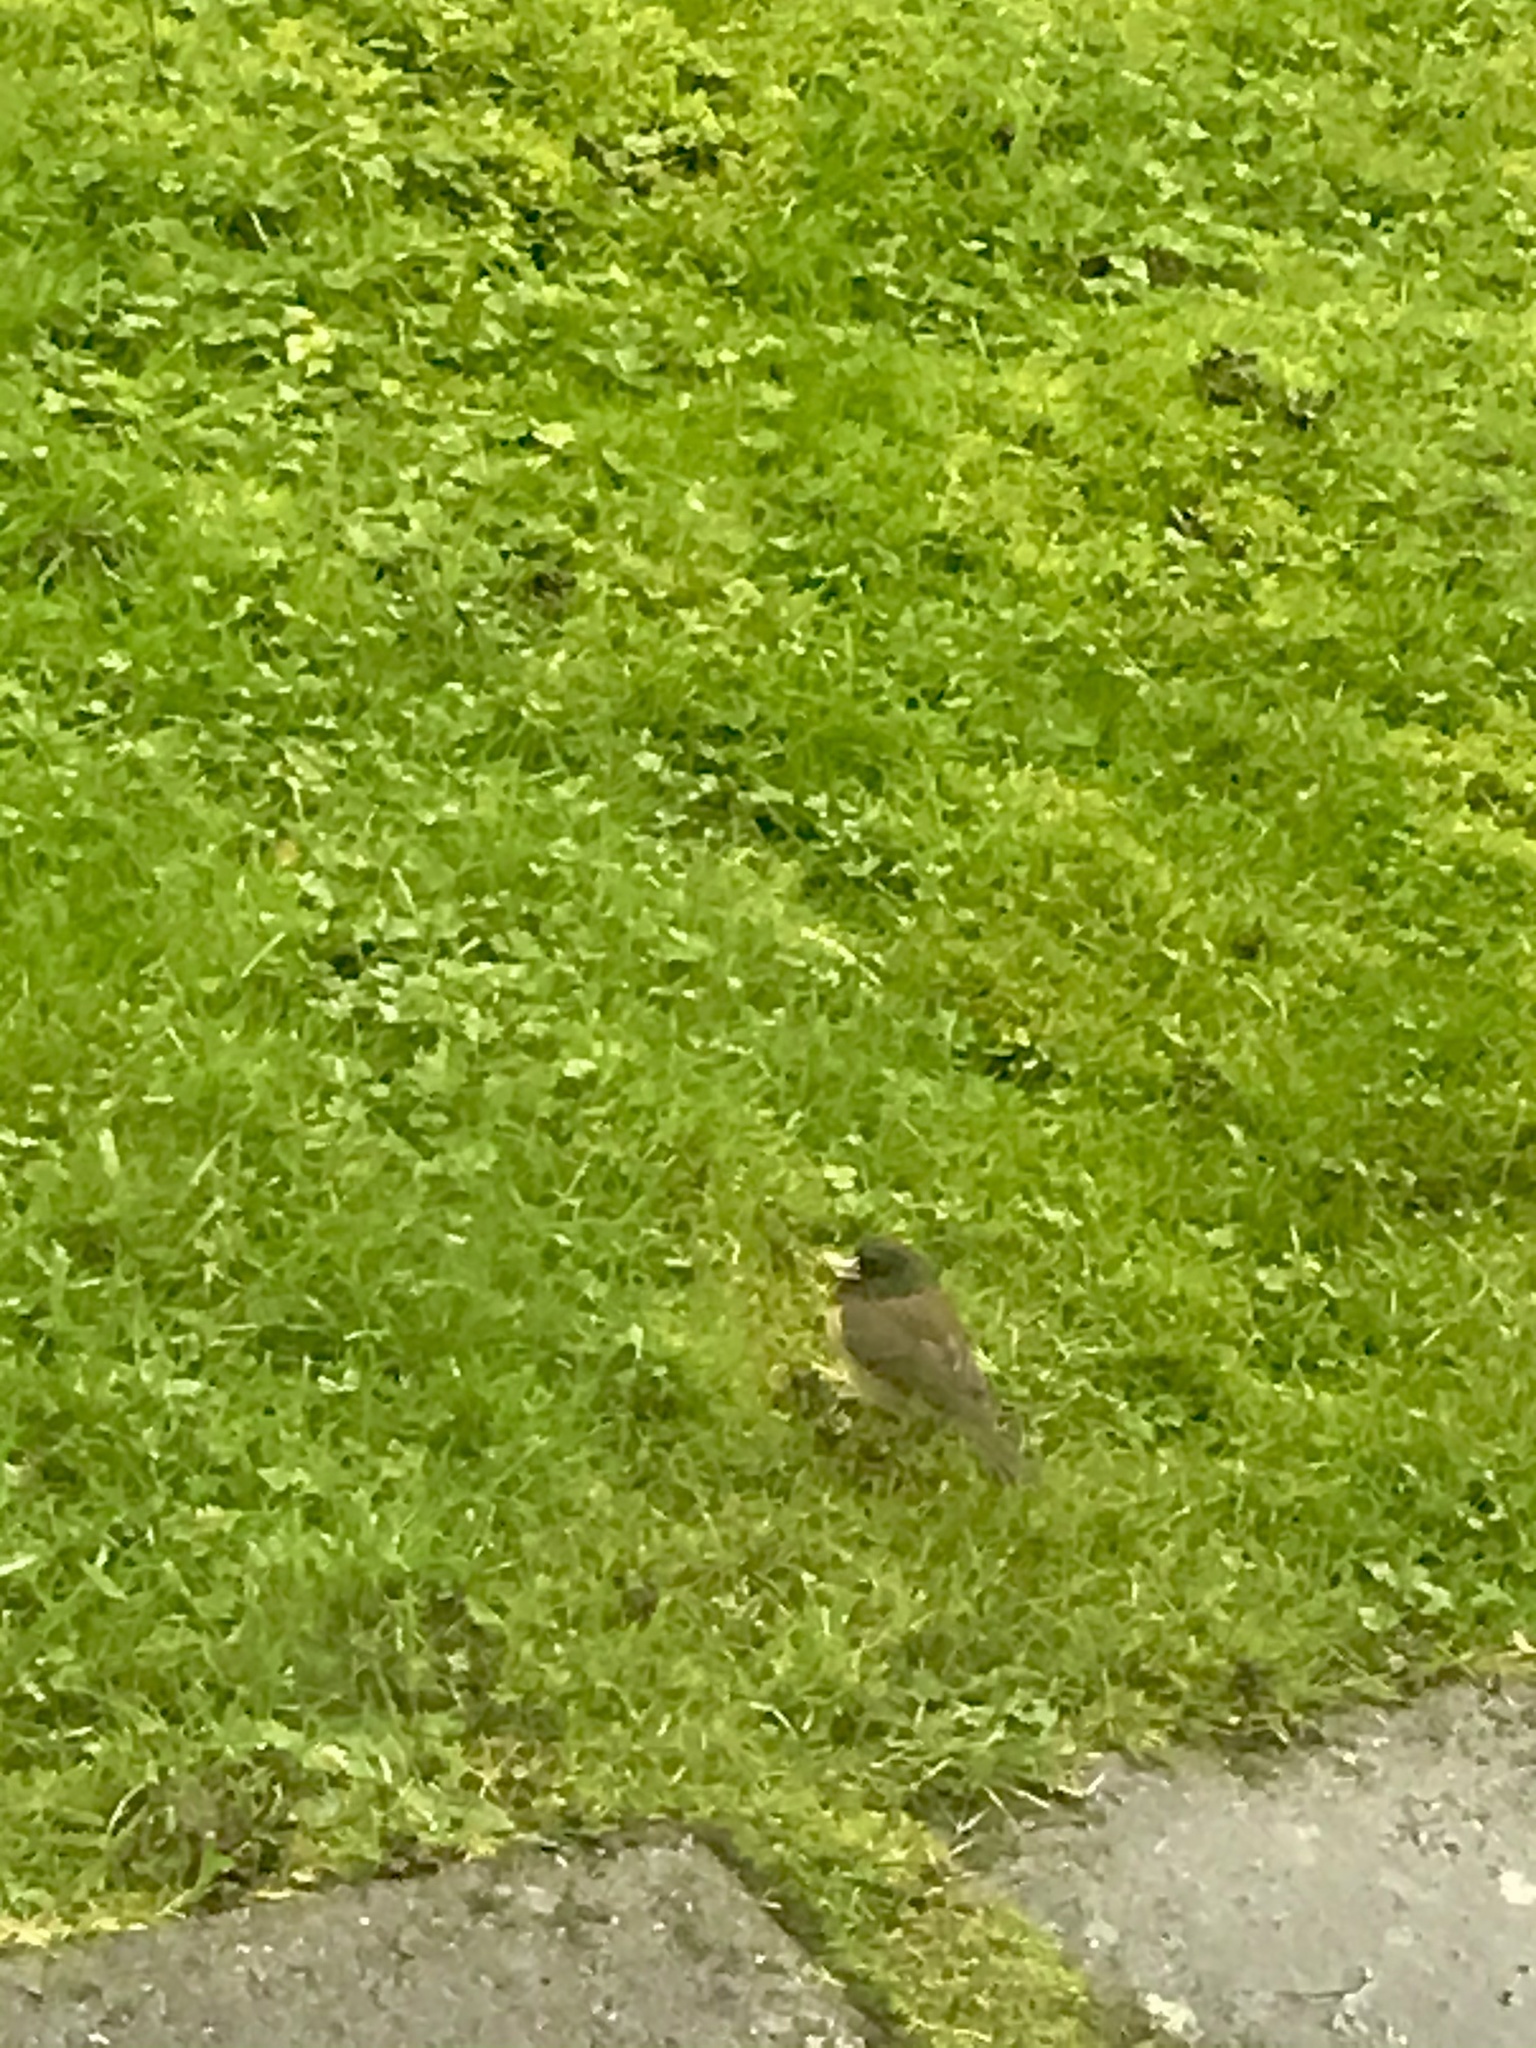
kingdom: Animalia
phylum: Chordata
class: Aves
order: Passeriformes
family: Passerellidae
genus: Junco
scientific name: Junco hyemalis
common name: Dark-eyed junco
